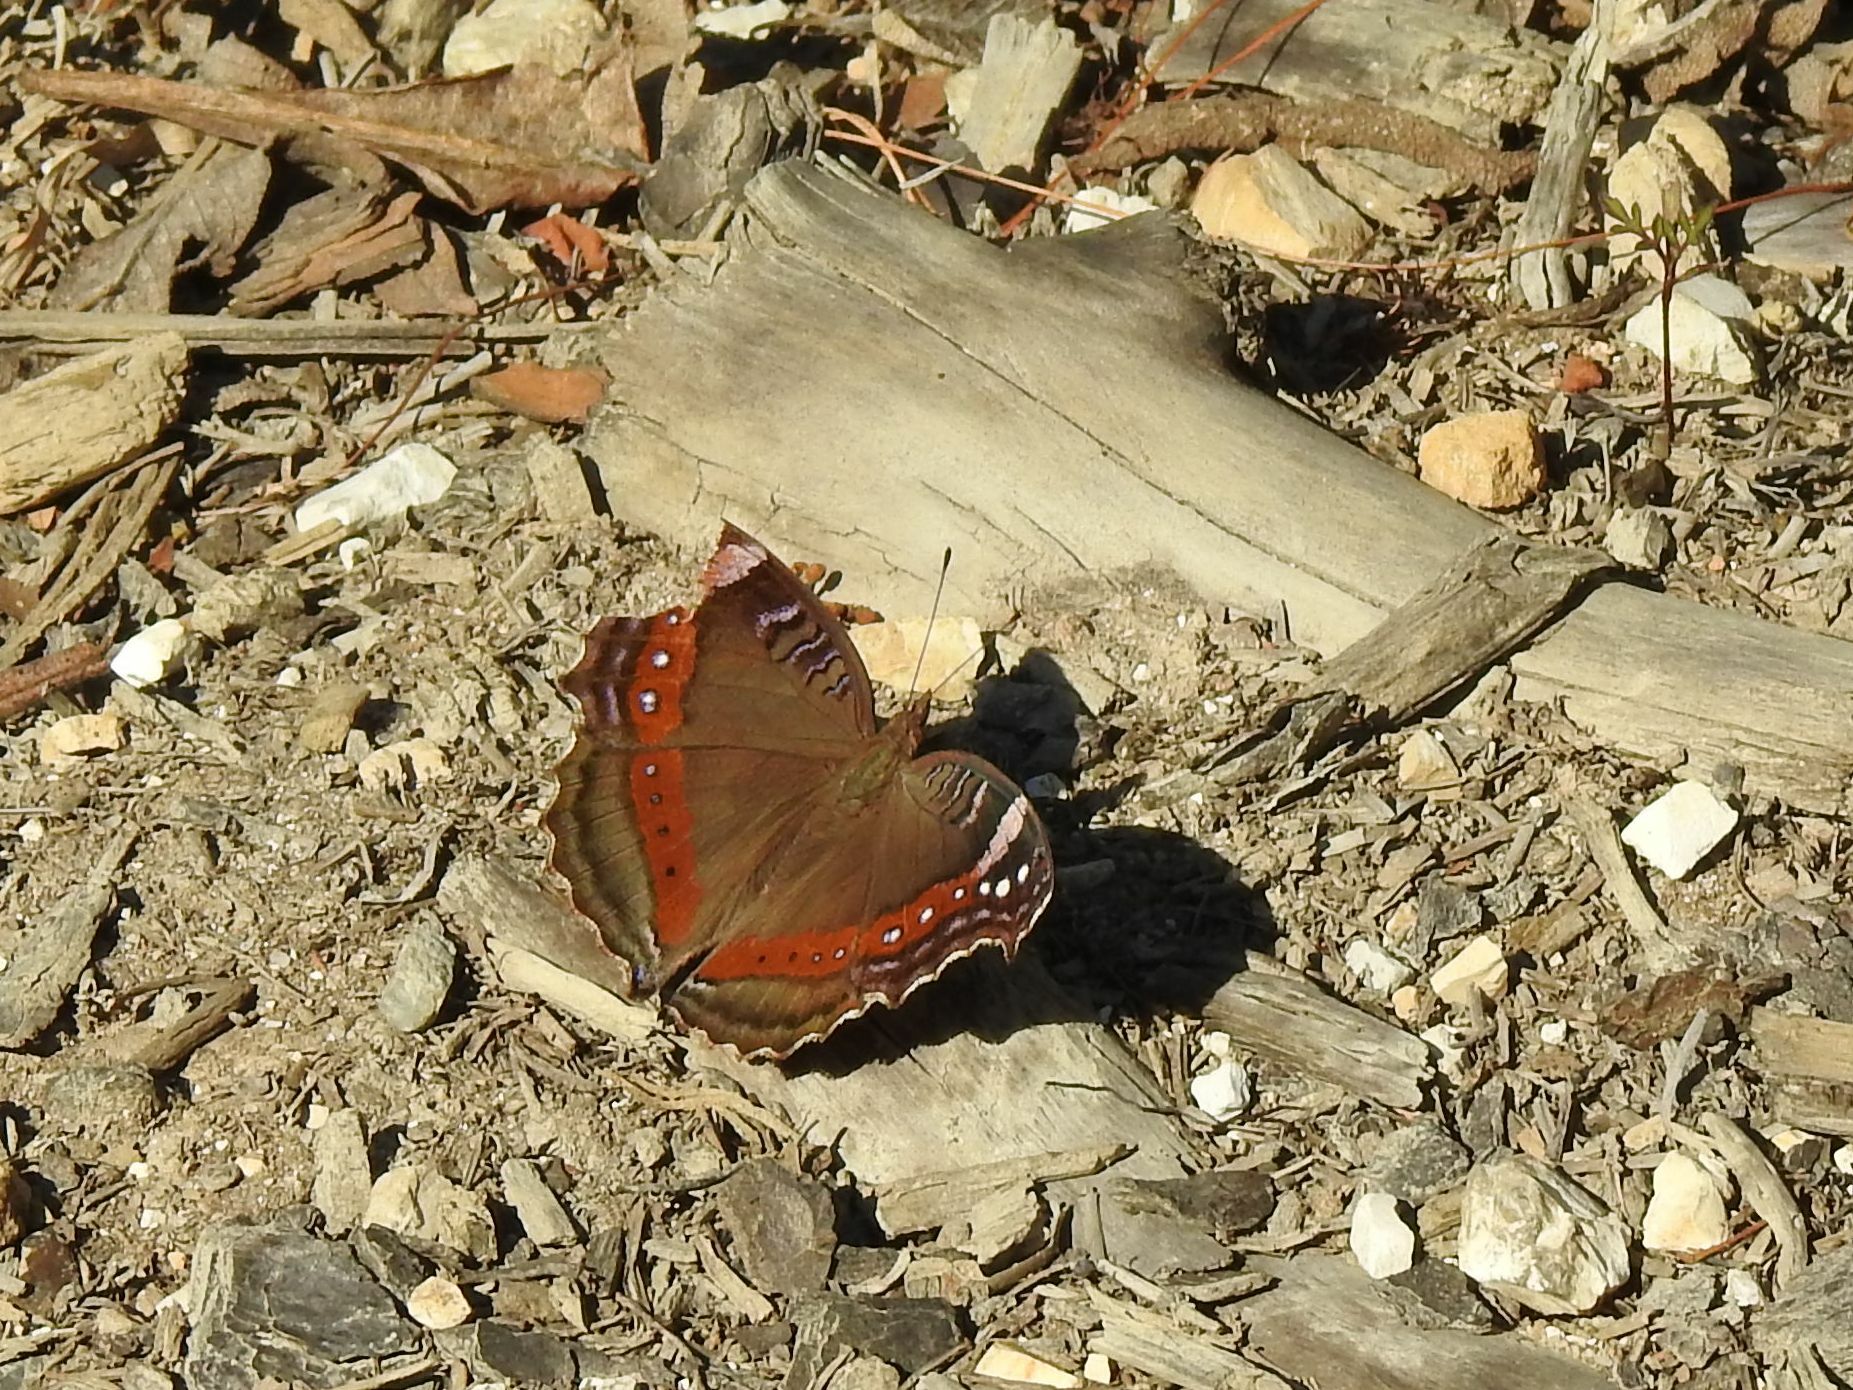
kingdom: Animalia
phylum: Arthropoda
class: Insecta
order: Lepidoptera
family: Nymphalidae
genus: Junonia
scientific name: Junonia archesia
